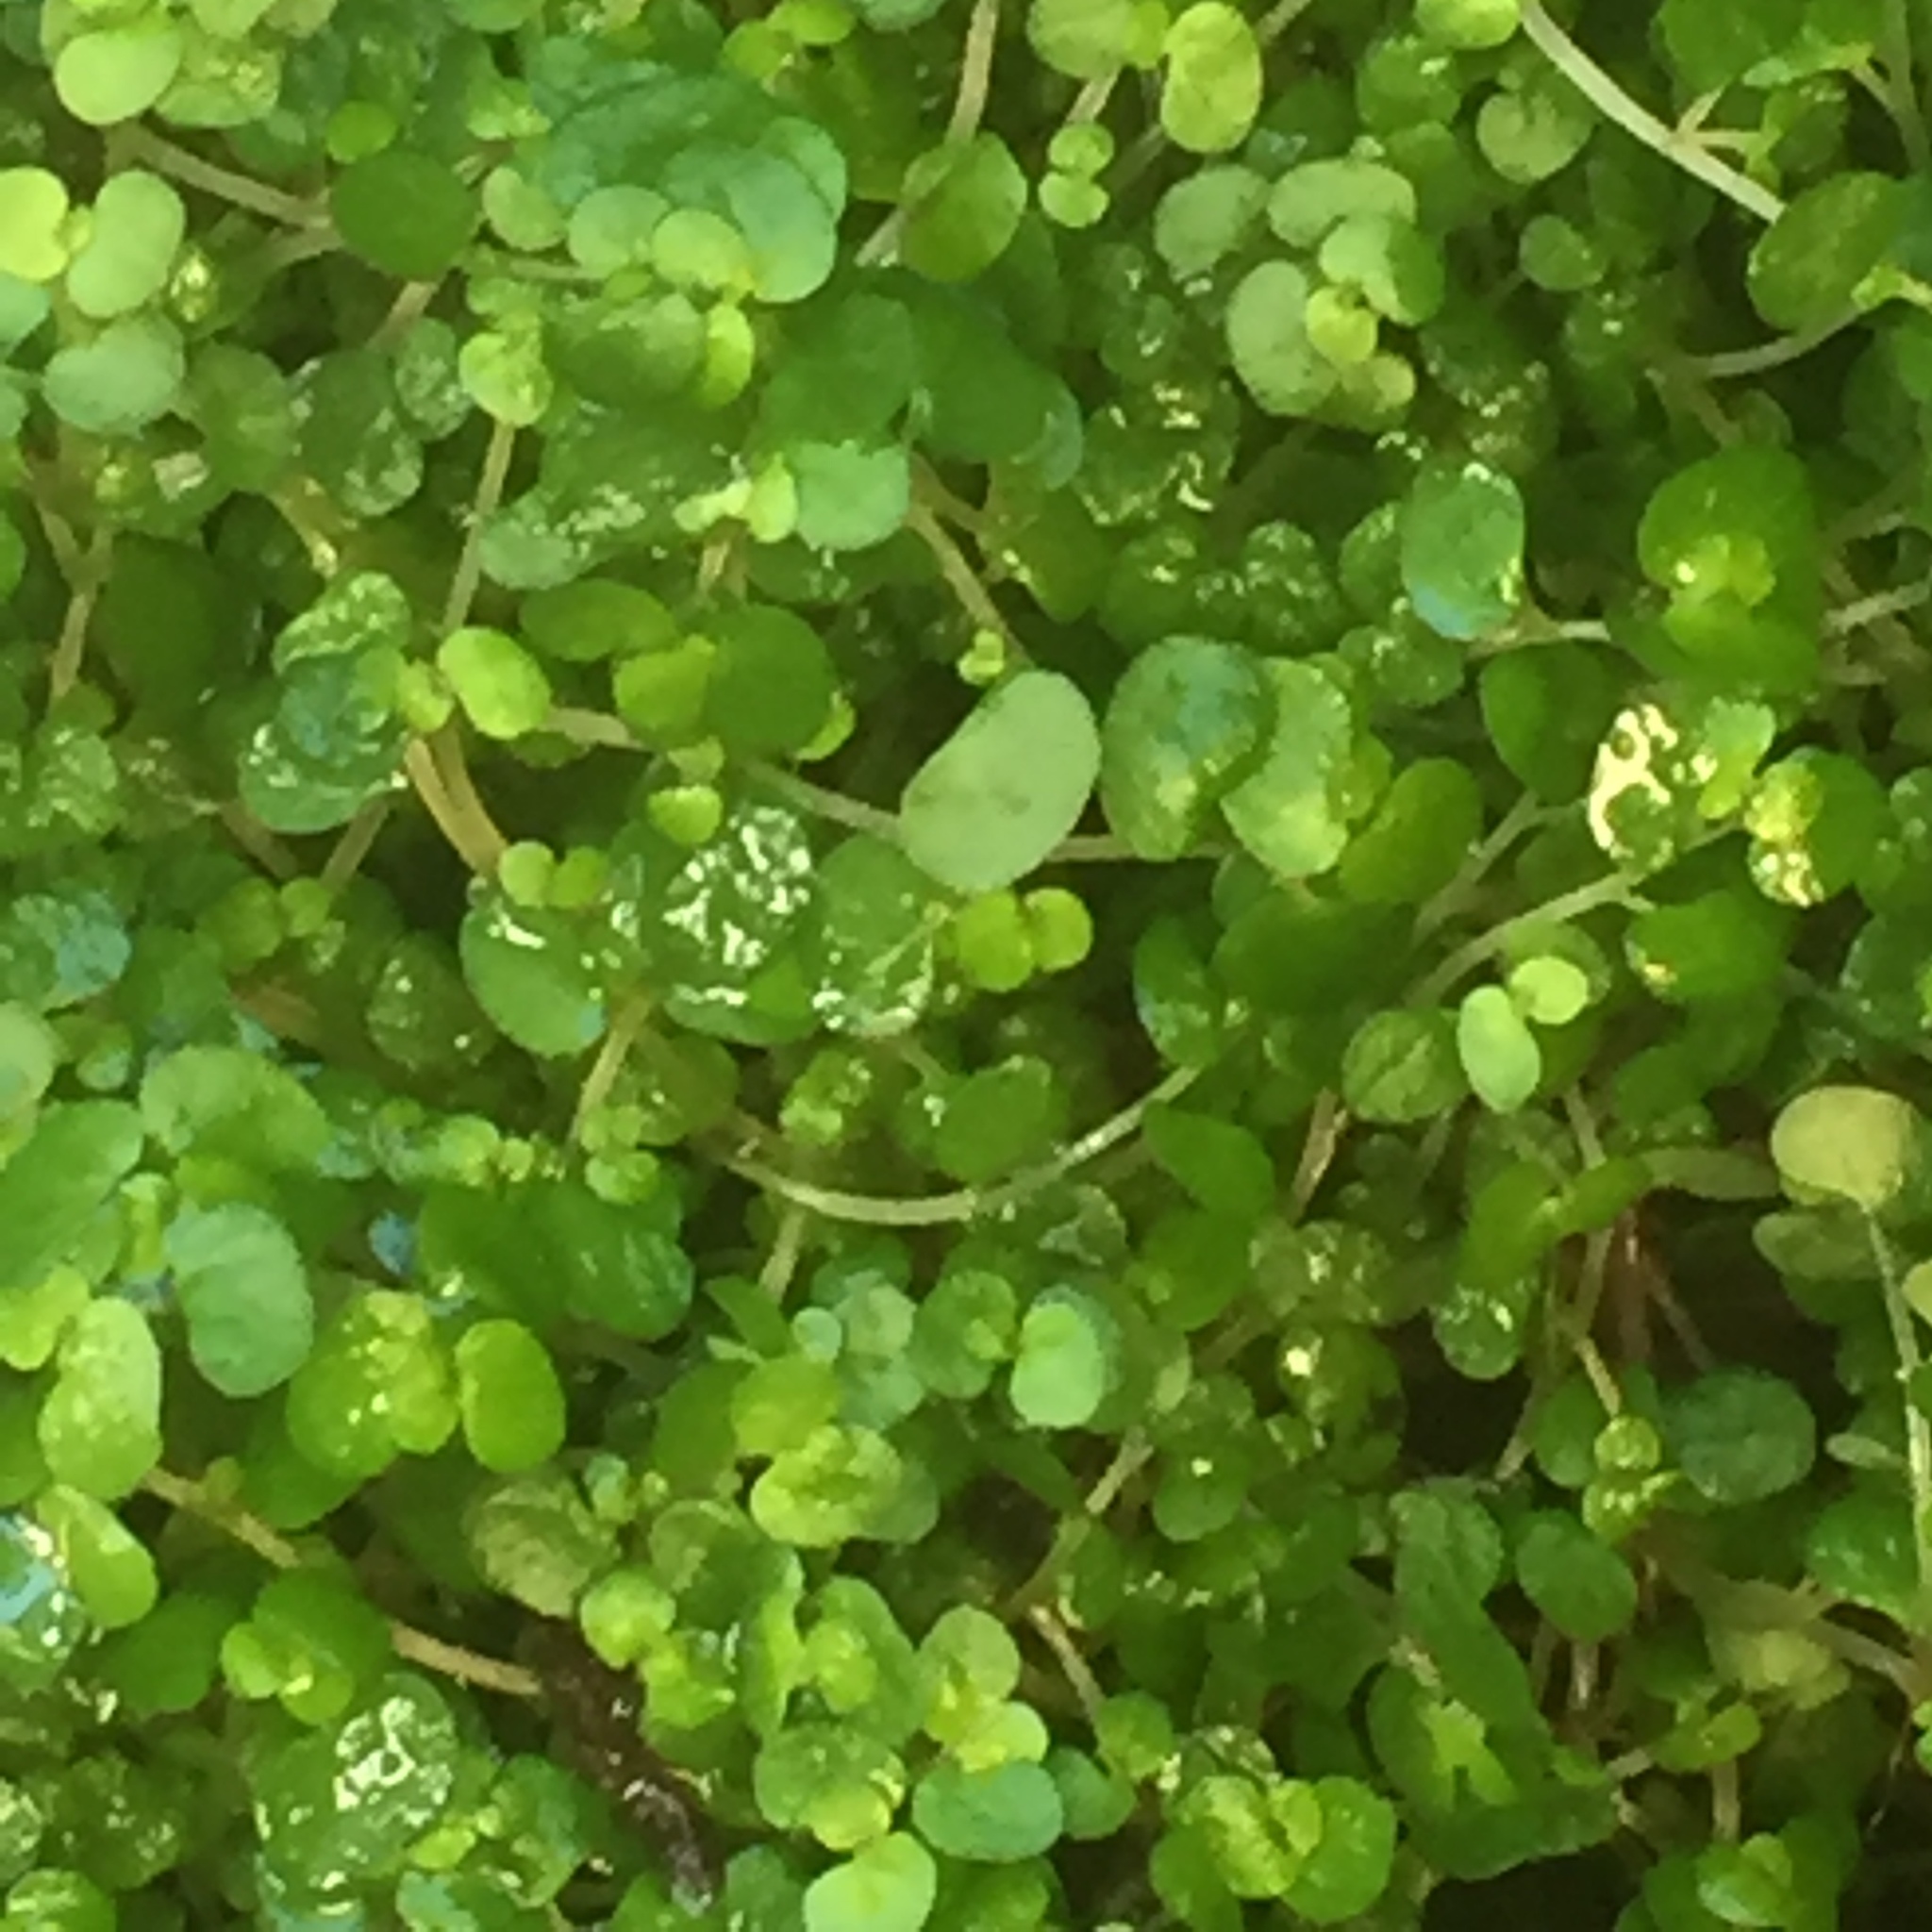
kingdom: Plantae
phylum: Tracheophyta
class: Magnoliopsida
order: Rosales
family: Urticaceae
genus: Soleirolia
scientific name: Soleirolia soleirolii
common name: Mind-your-own-business
